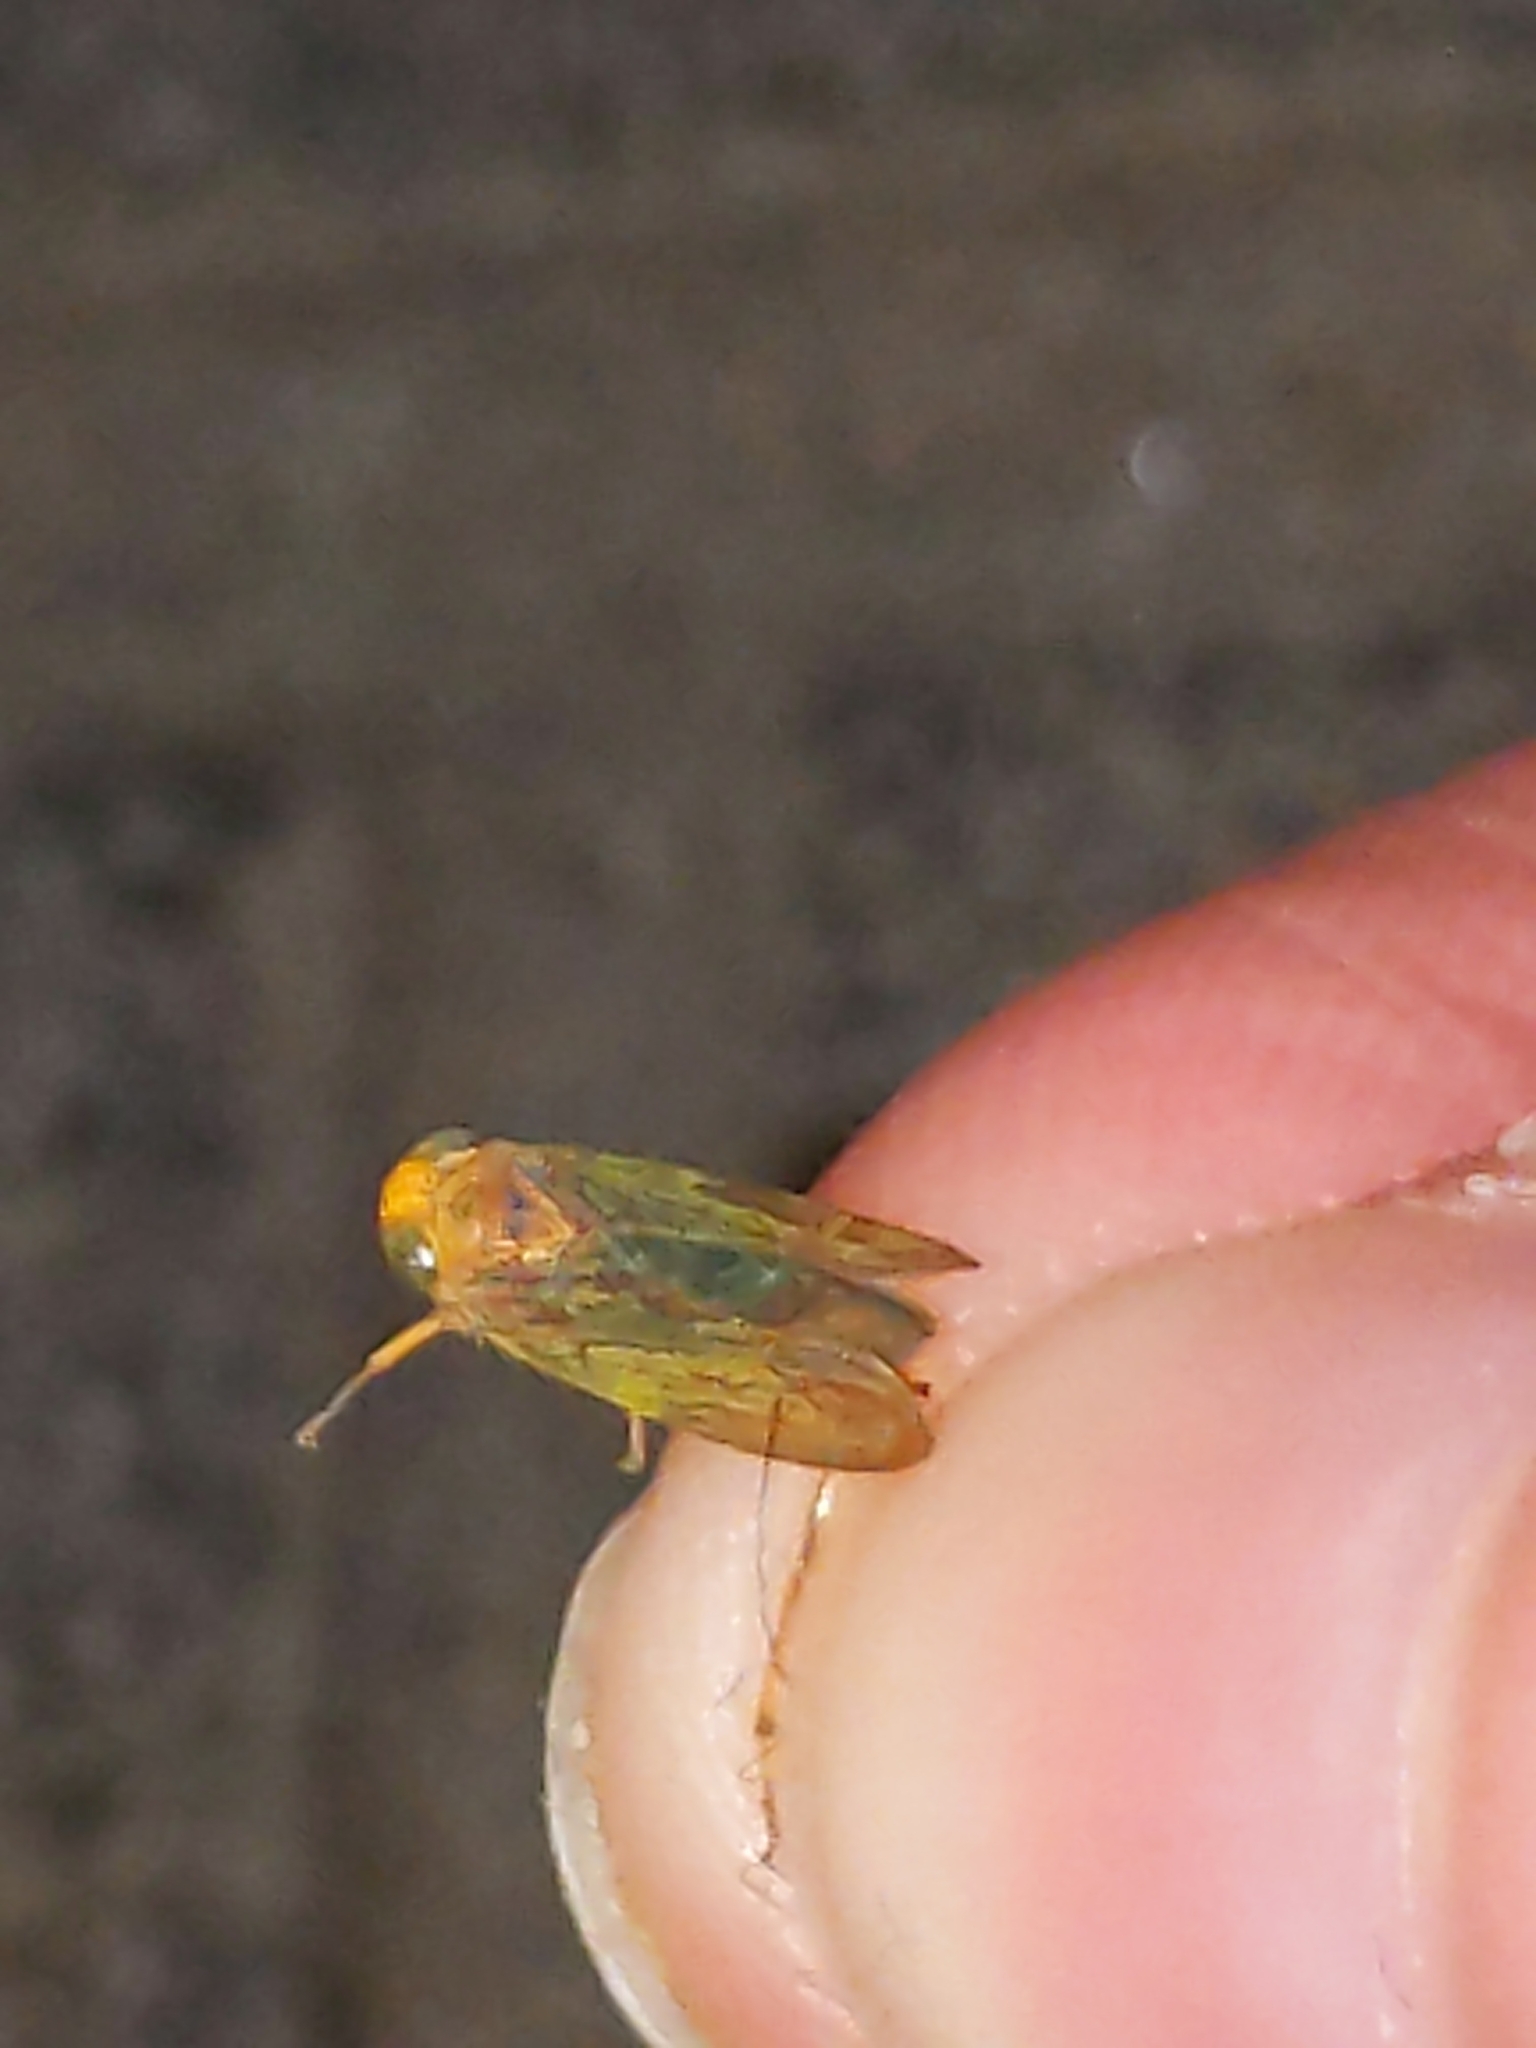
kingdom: Animalia
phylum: Arthropoda
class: Insecta
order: Hemiptera
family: Cicadellidae
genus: Jikradia
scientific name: Jikradia olitoria
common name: Coppery leafhopper
